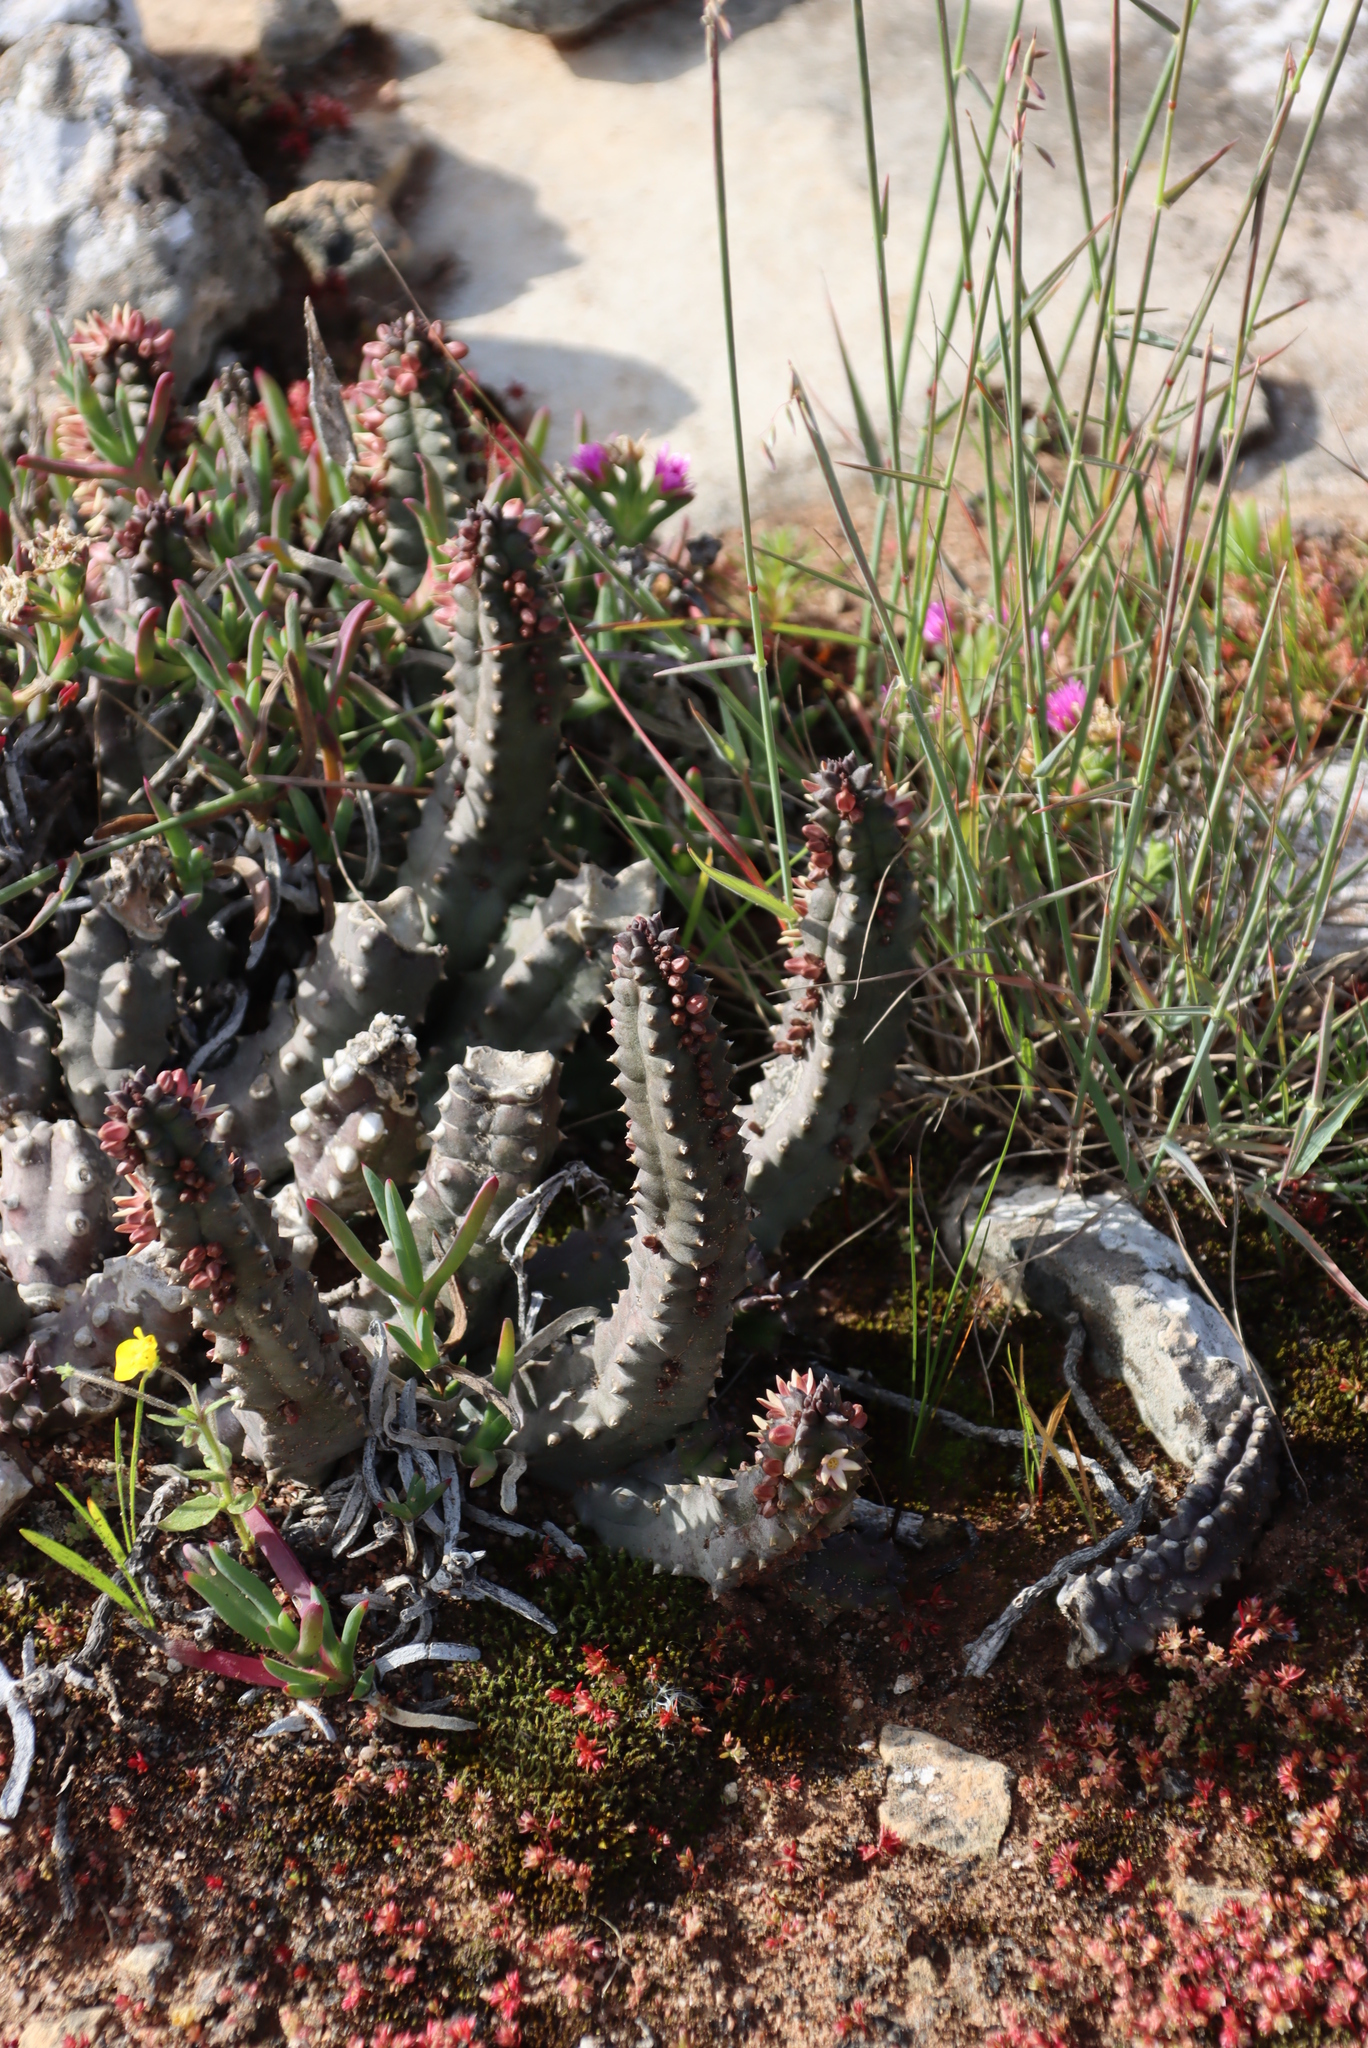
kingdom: Plantae
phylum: Tracheophyta
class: Magnoliopsida
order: Gentianales
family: Apocynaceae
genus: Ceropegia
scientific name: Ceropegia incarnata
